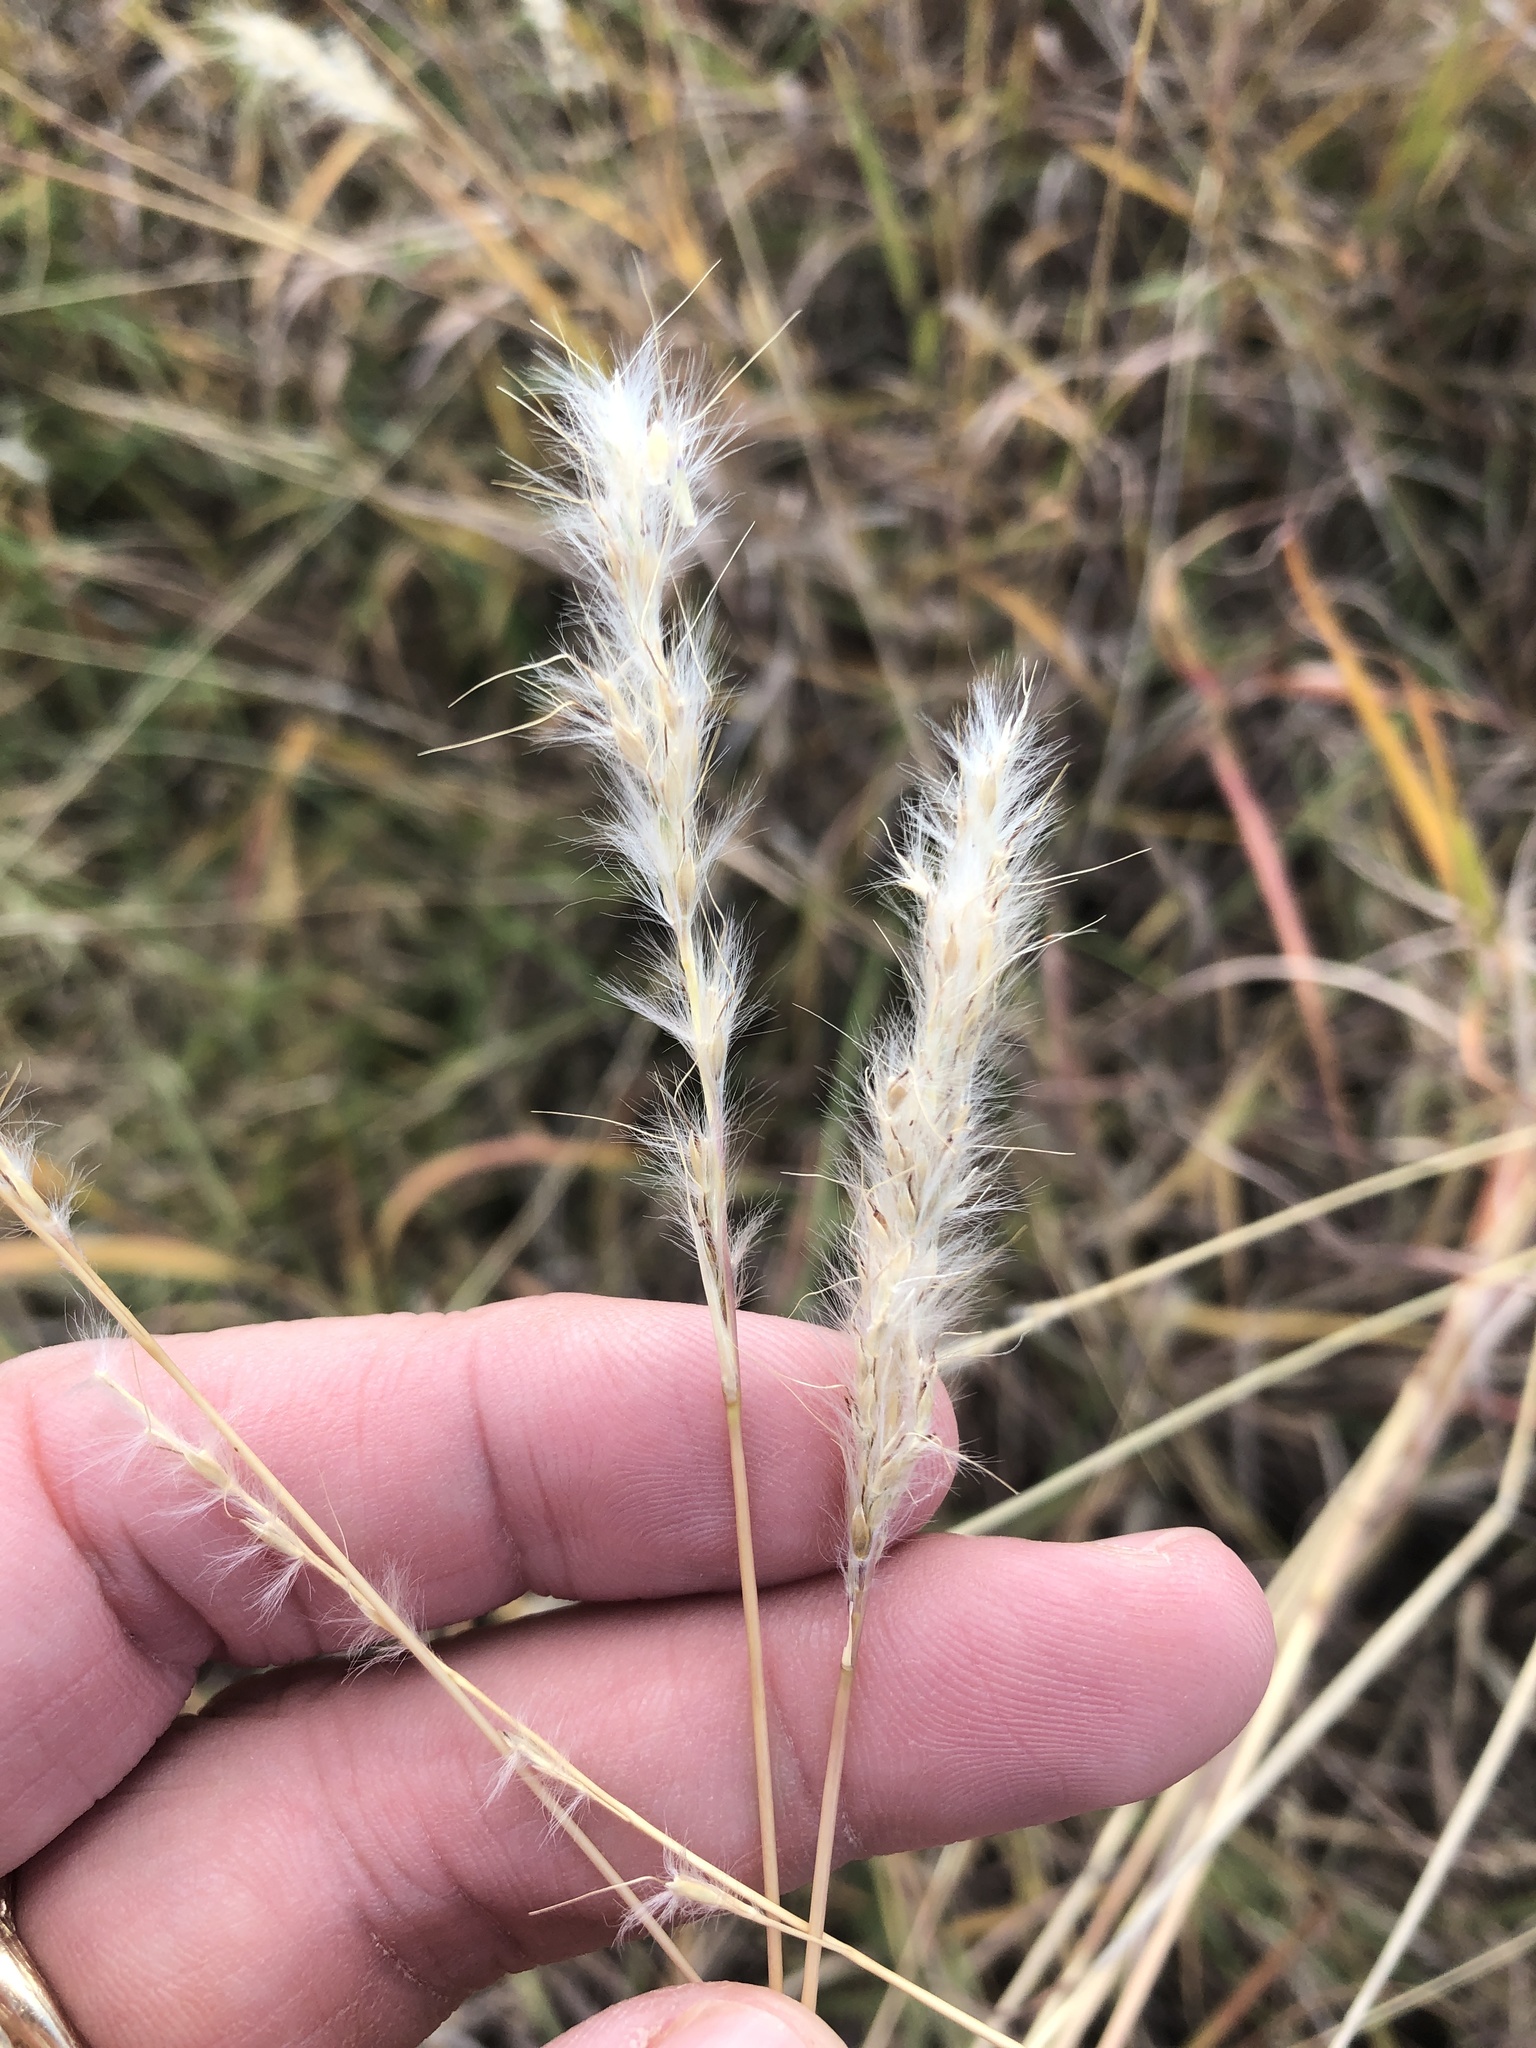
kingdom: Plantae
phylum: Tracheophyta
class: Liliopsida
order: Poales
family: Poaceae
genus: Bothriochloa
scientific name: Bothriochloa torreyana
